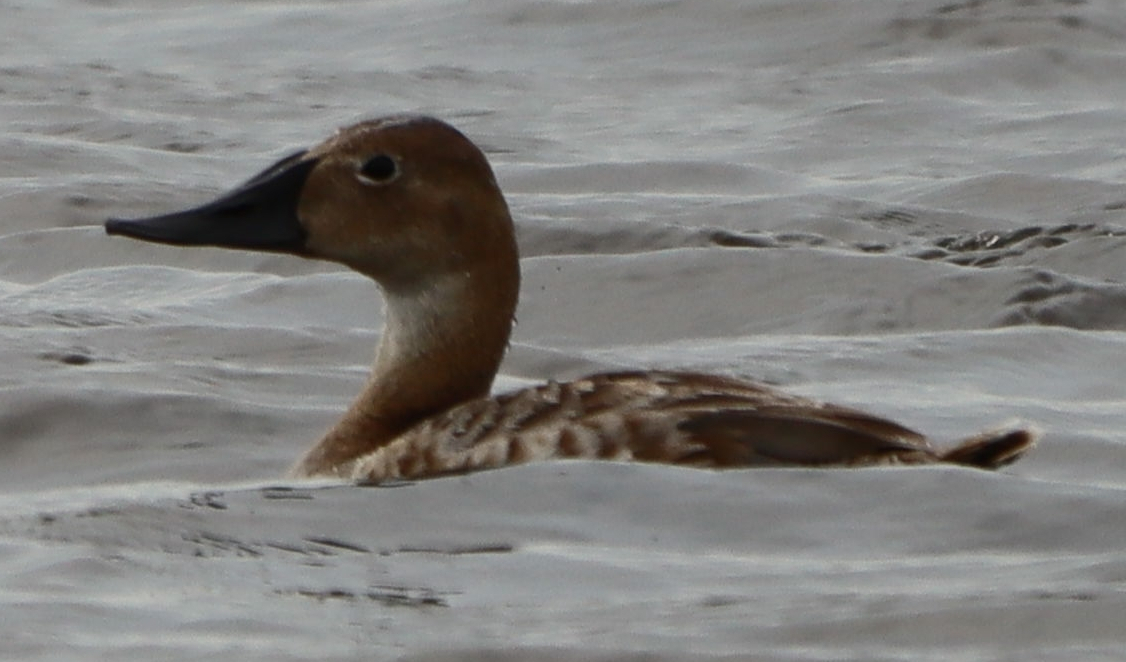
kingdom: Animalia
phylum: Chordata
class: Aves
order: Anseriformes
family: Anatidae
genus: Aythya
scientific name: Aythya valisineria
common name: Canvasback
